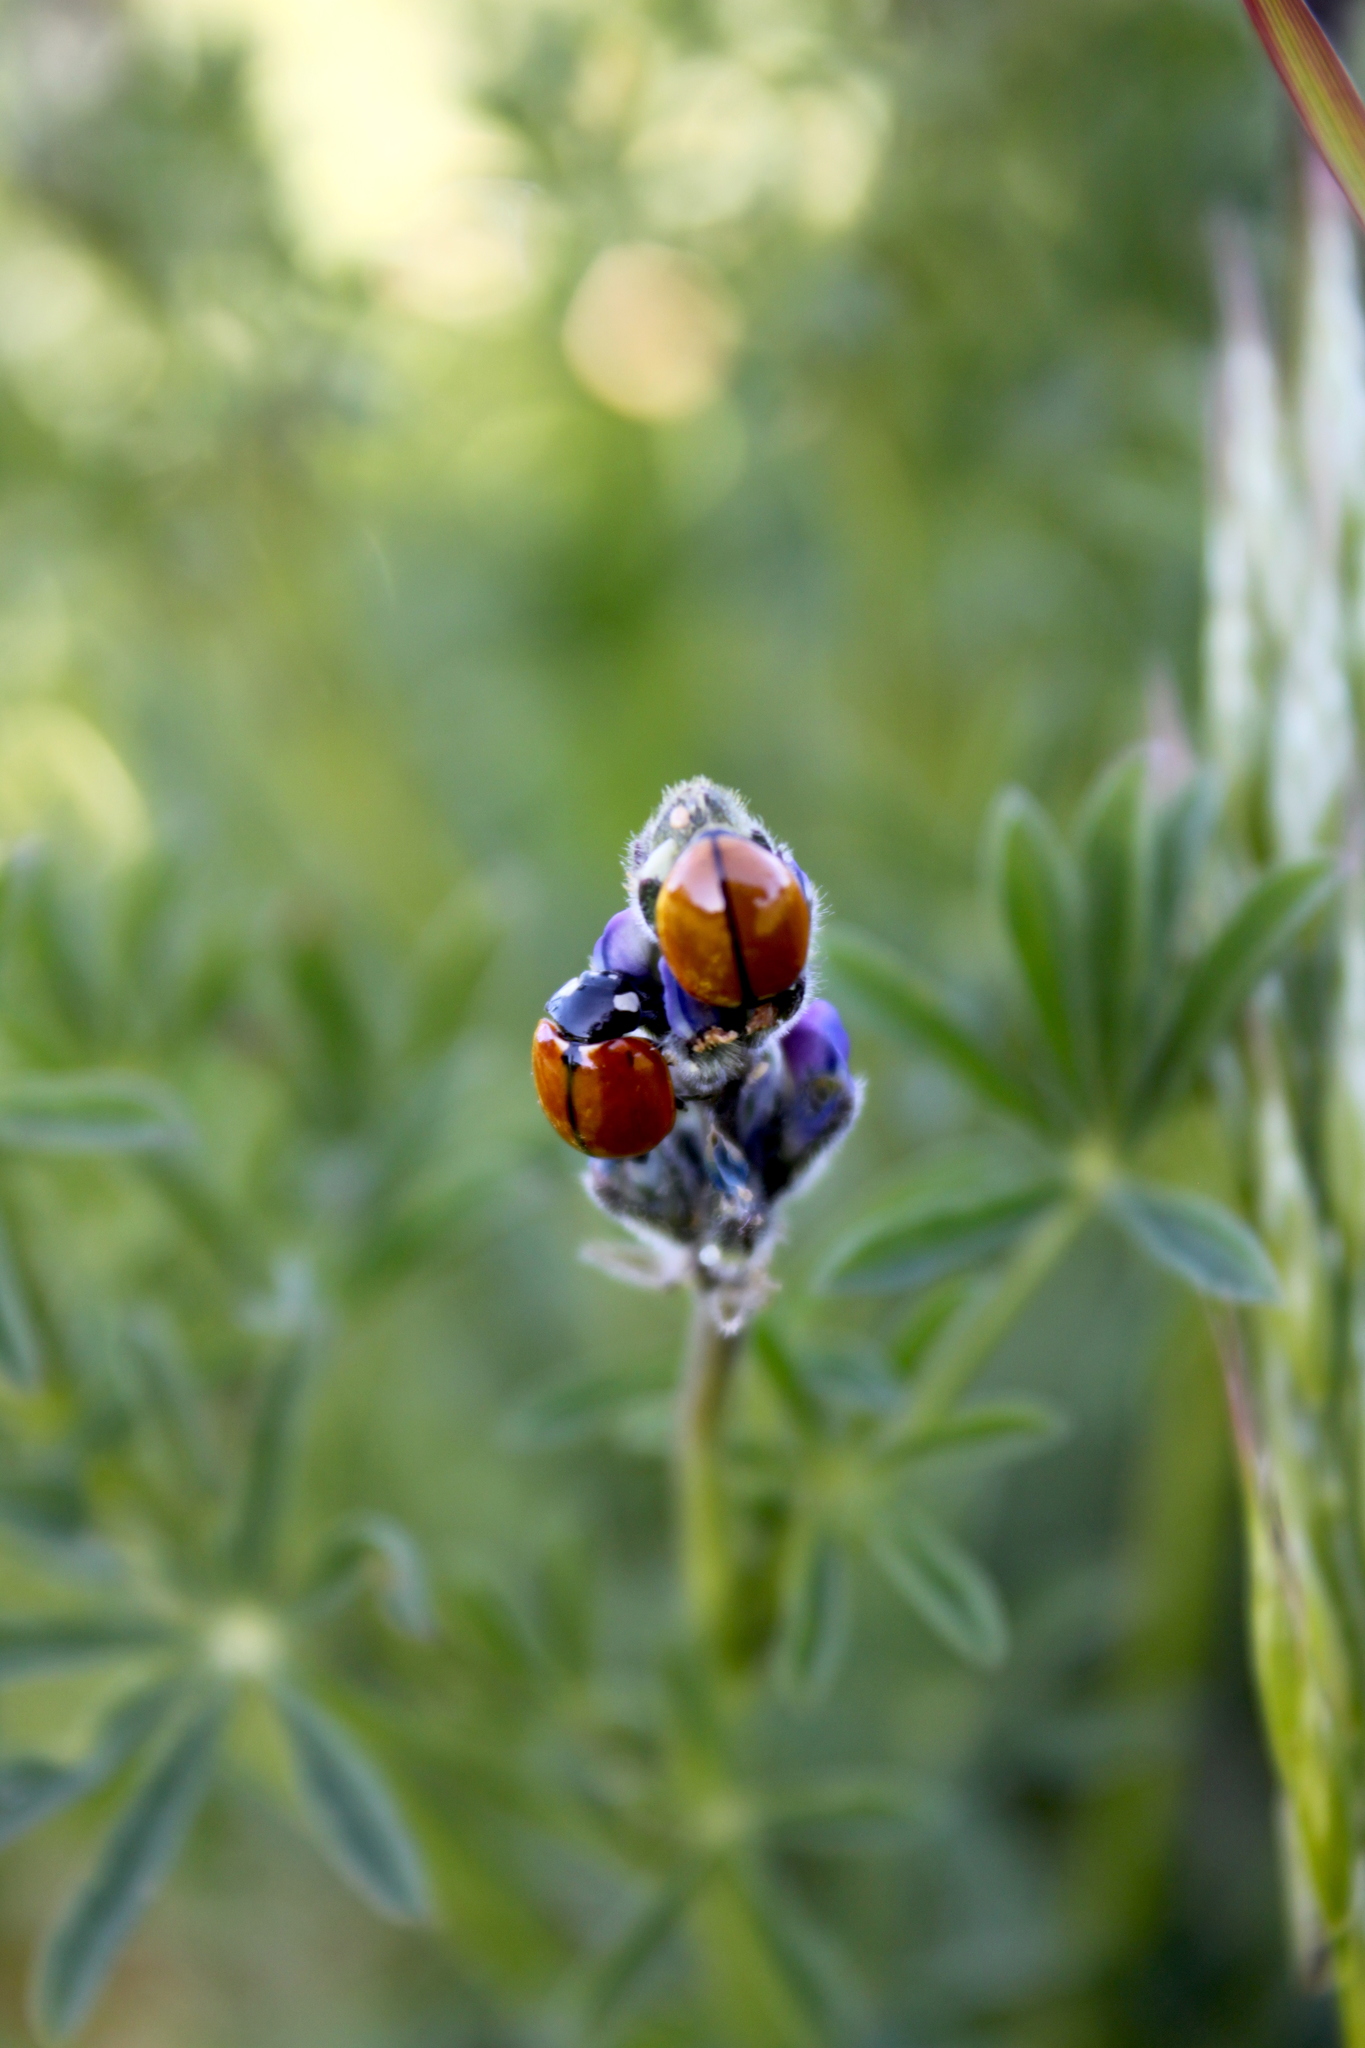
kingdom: Animalia
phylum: Arthropoda
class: Insecta
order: Coleoptera
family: Coccinellidae
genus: Coccinella
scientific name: Coccinella californica
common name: Lady beetle
